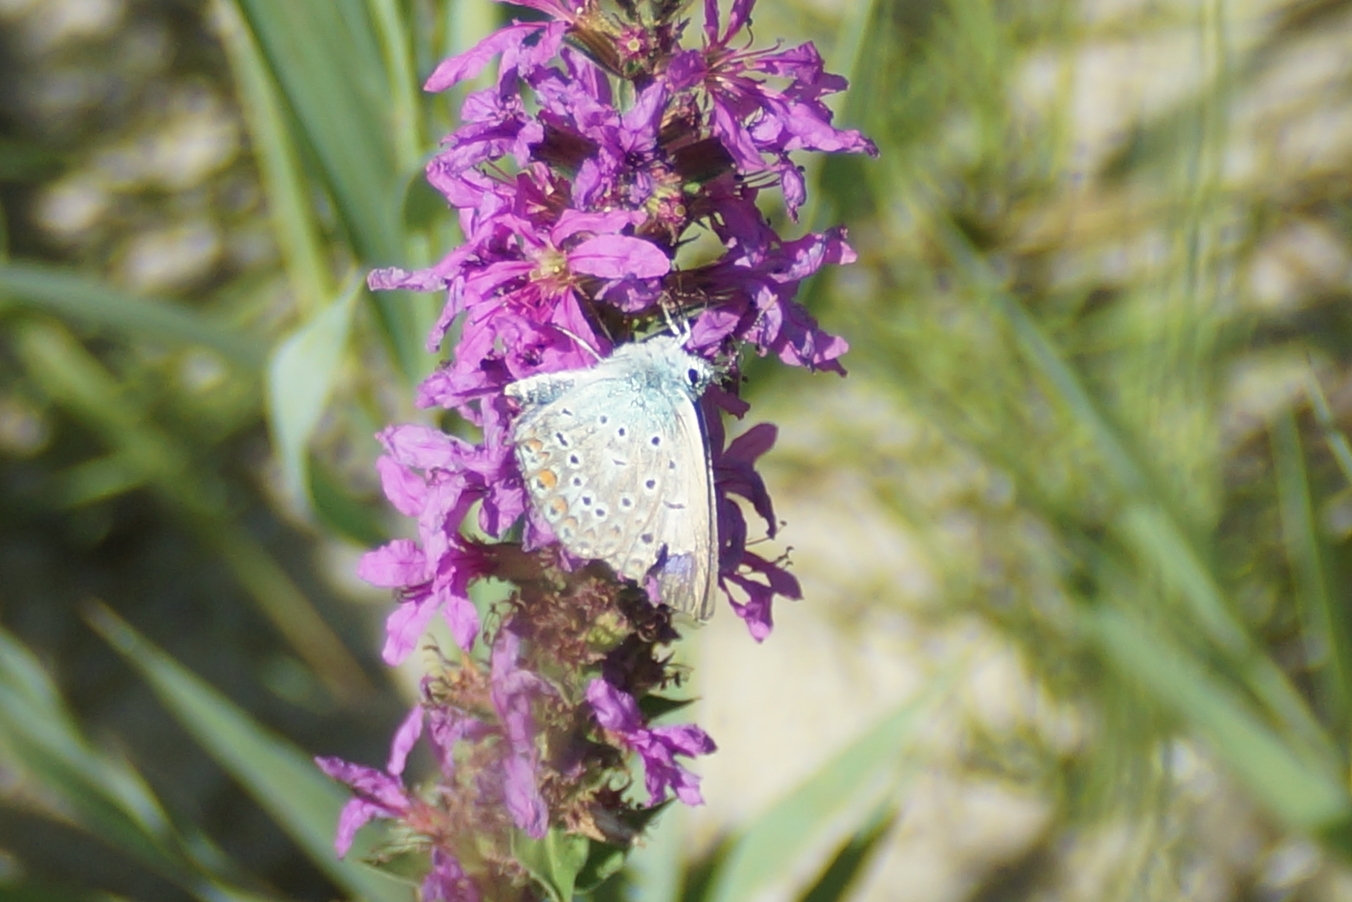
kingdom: Animalia
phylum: Arthropoda
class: Insecta
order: Lepidoptera
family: Lycaenidae
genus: Polyommatus
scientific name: Polyommatus icarus
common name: Common blue
